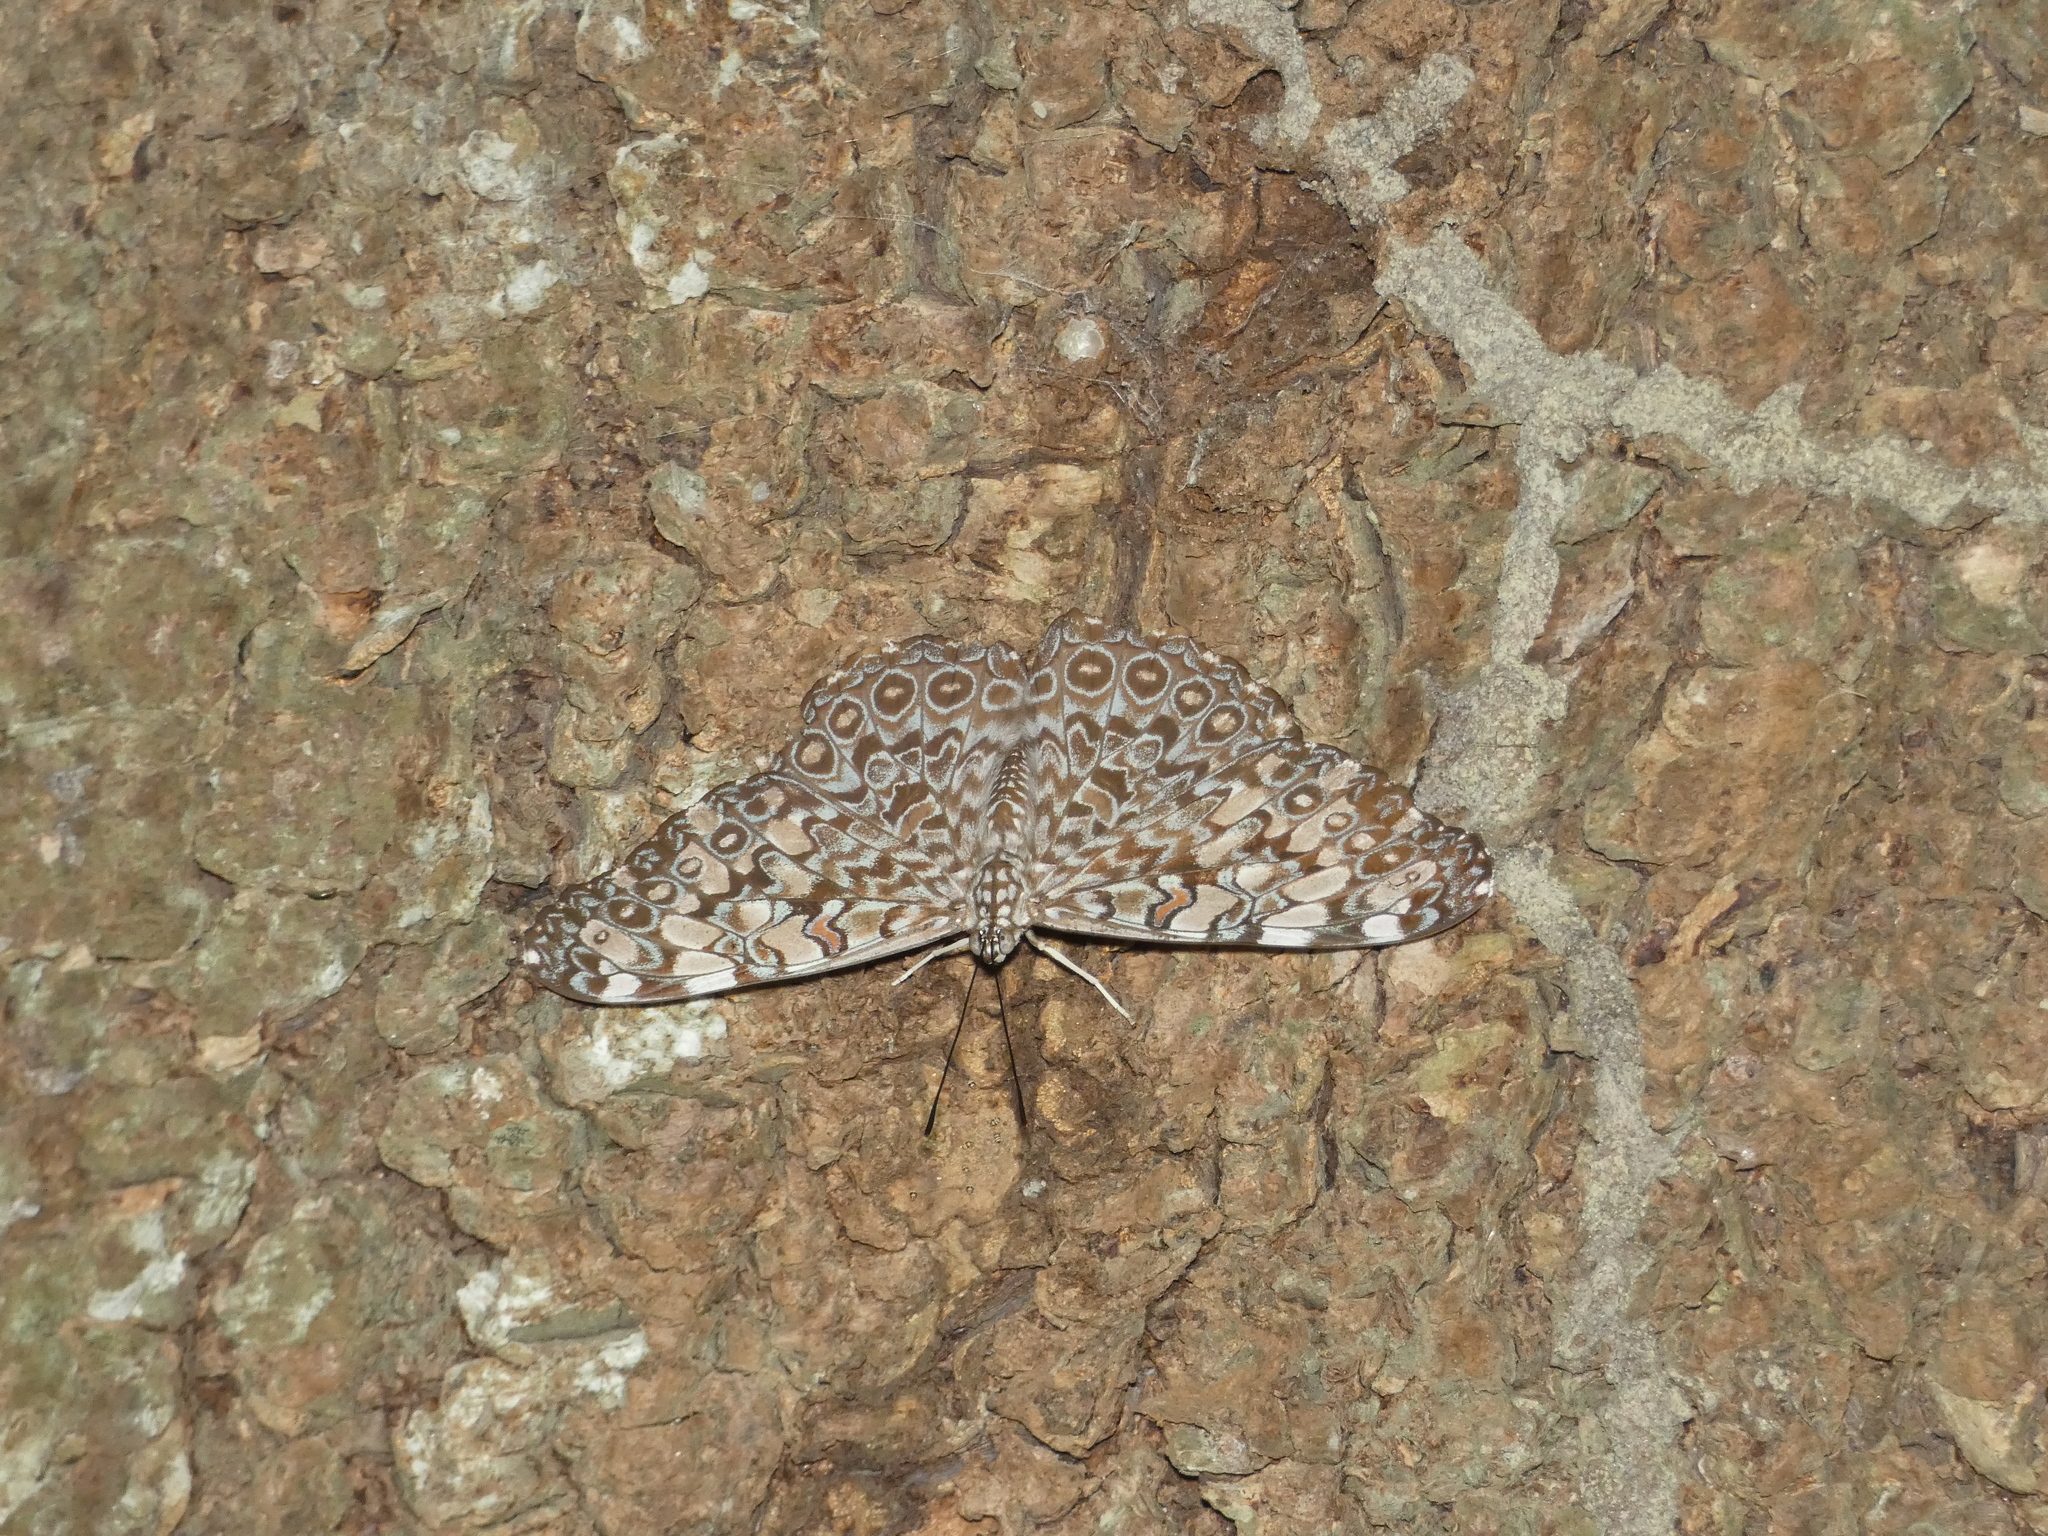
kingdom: Animalia
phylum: Arthropoda
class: Insecta
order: Lepidoptera
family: Nymphalidae
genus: Hamadryas
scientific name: Hamadryas feronia
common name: Variable cracker
